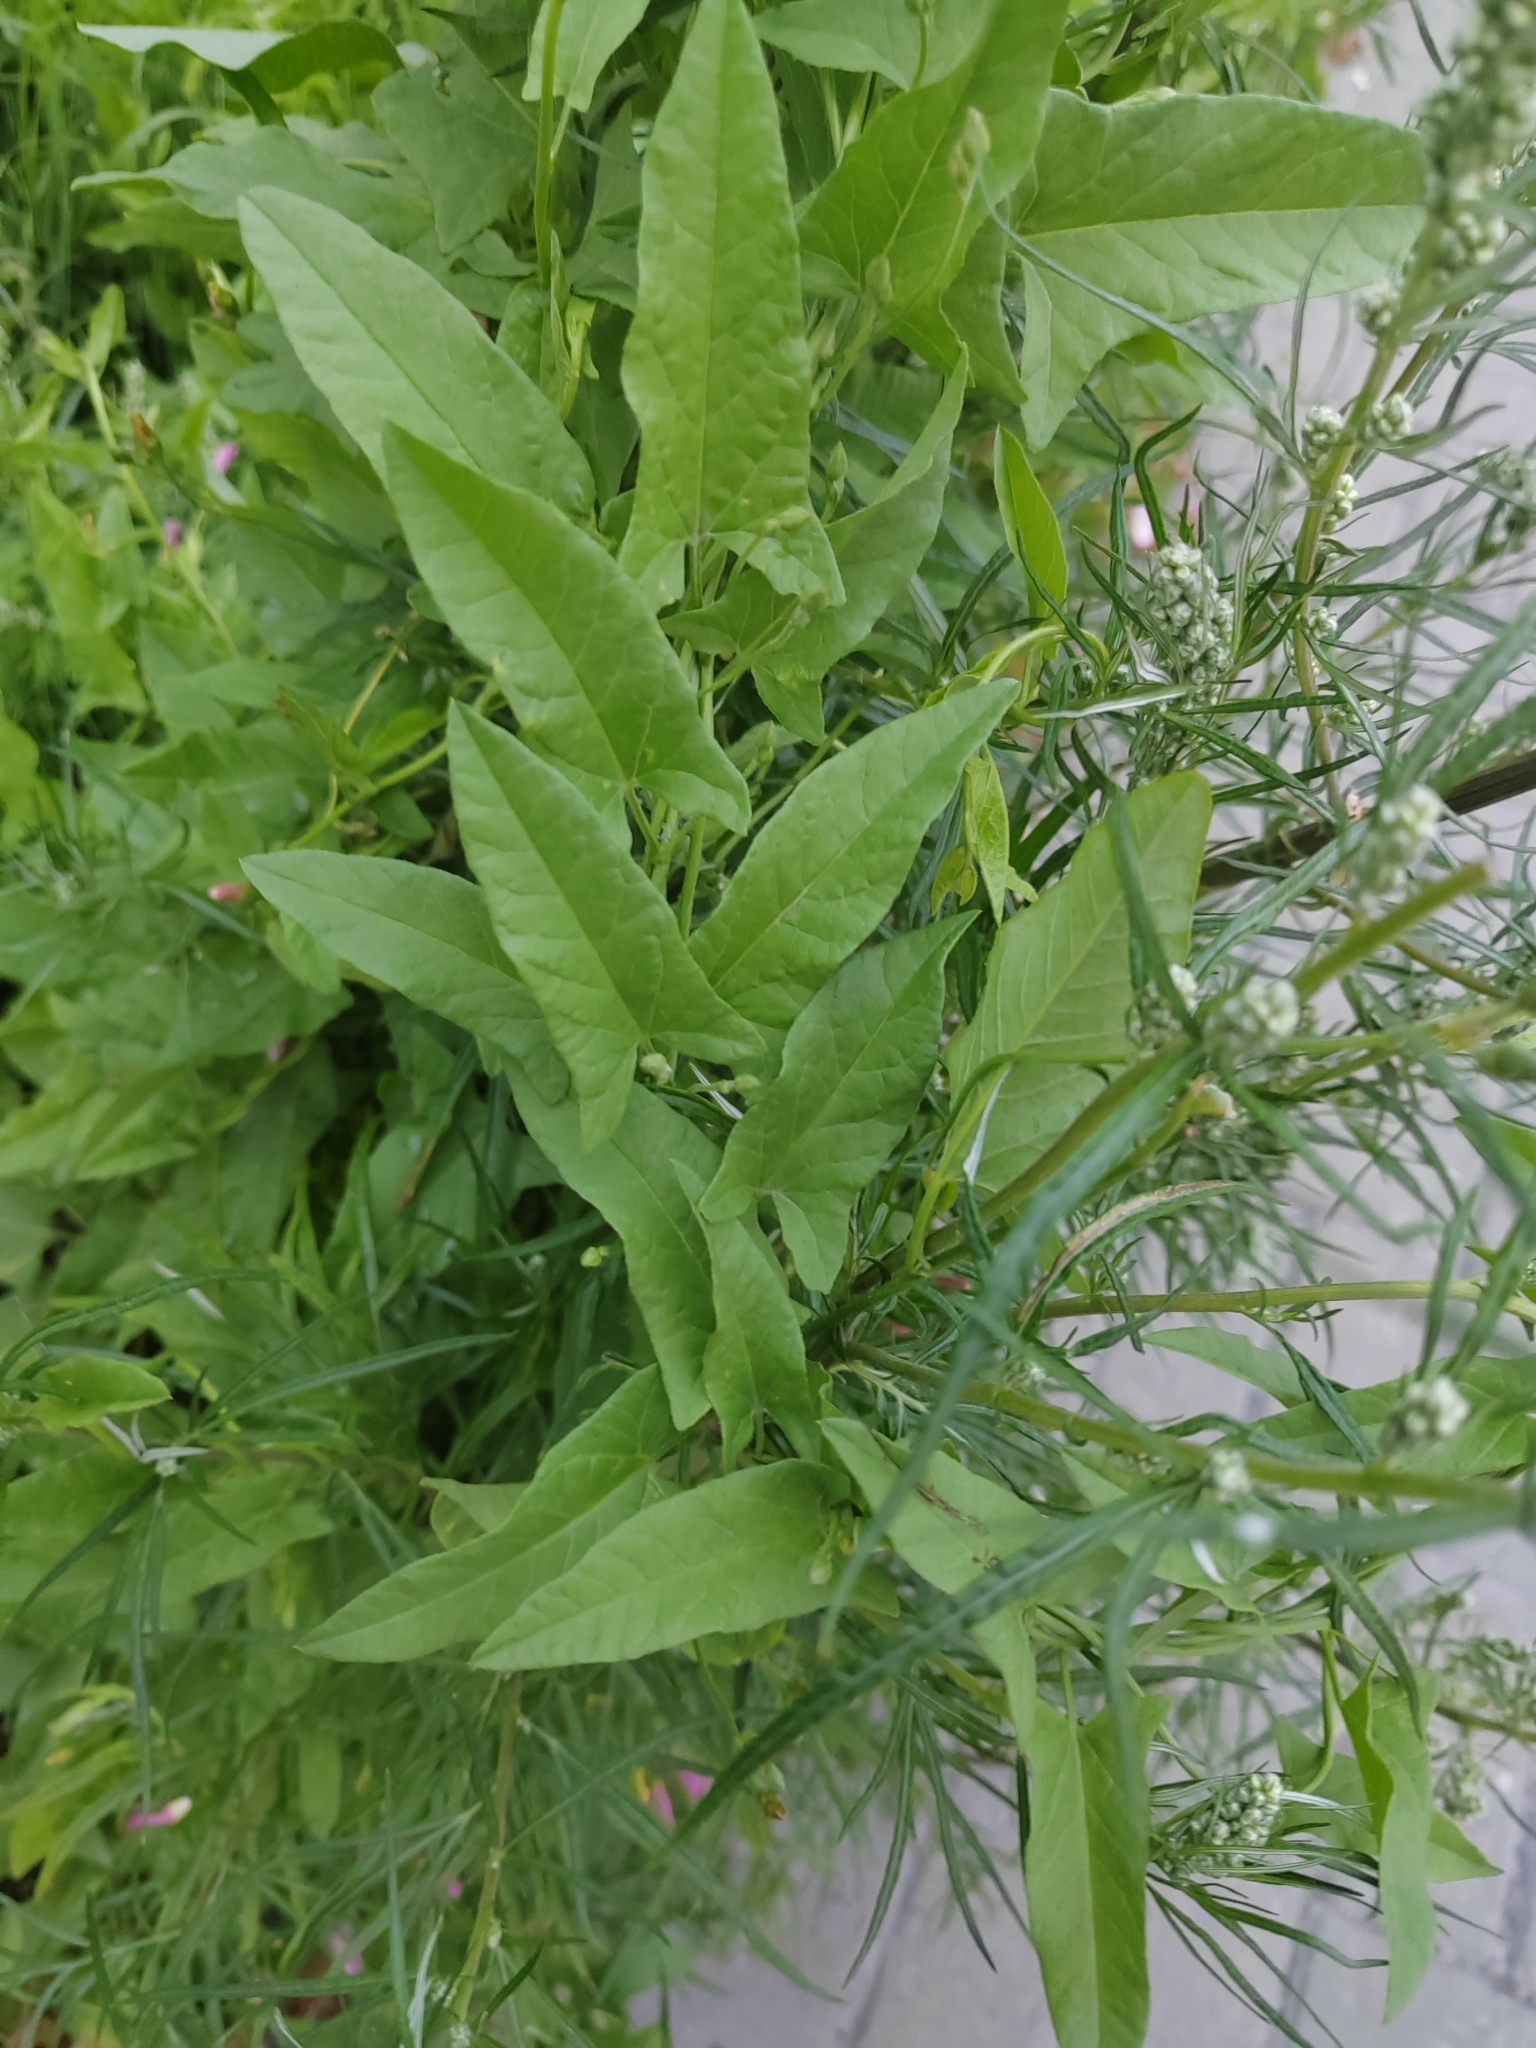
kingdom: Plantae
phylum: Tracheophyta
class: Magnoliopsida
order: Solanales
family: Convolvulaceae
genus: Convolvulus
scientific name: Convolvulus arvensis
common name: Field bindweed
